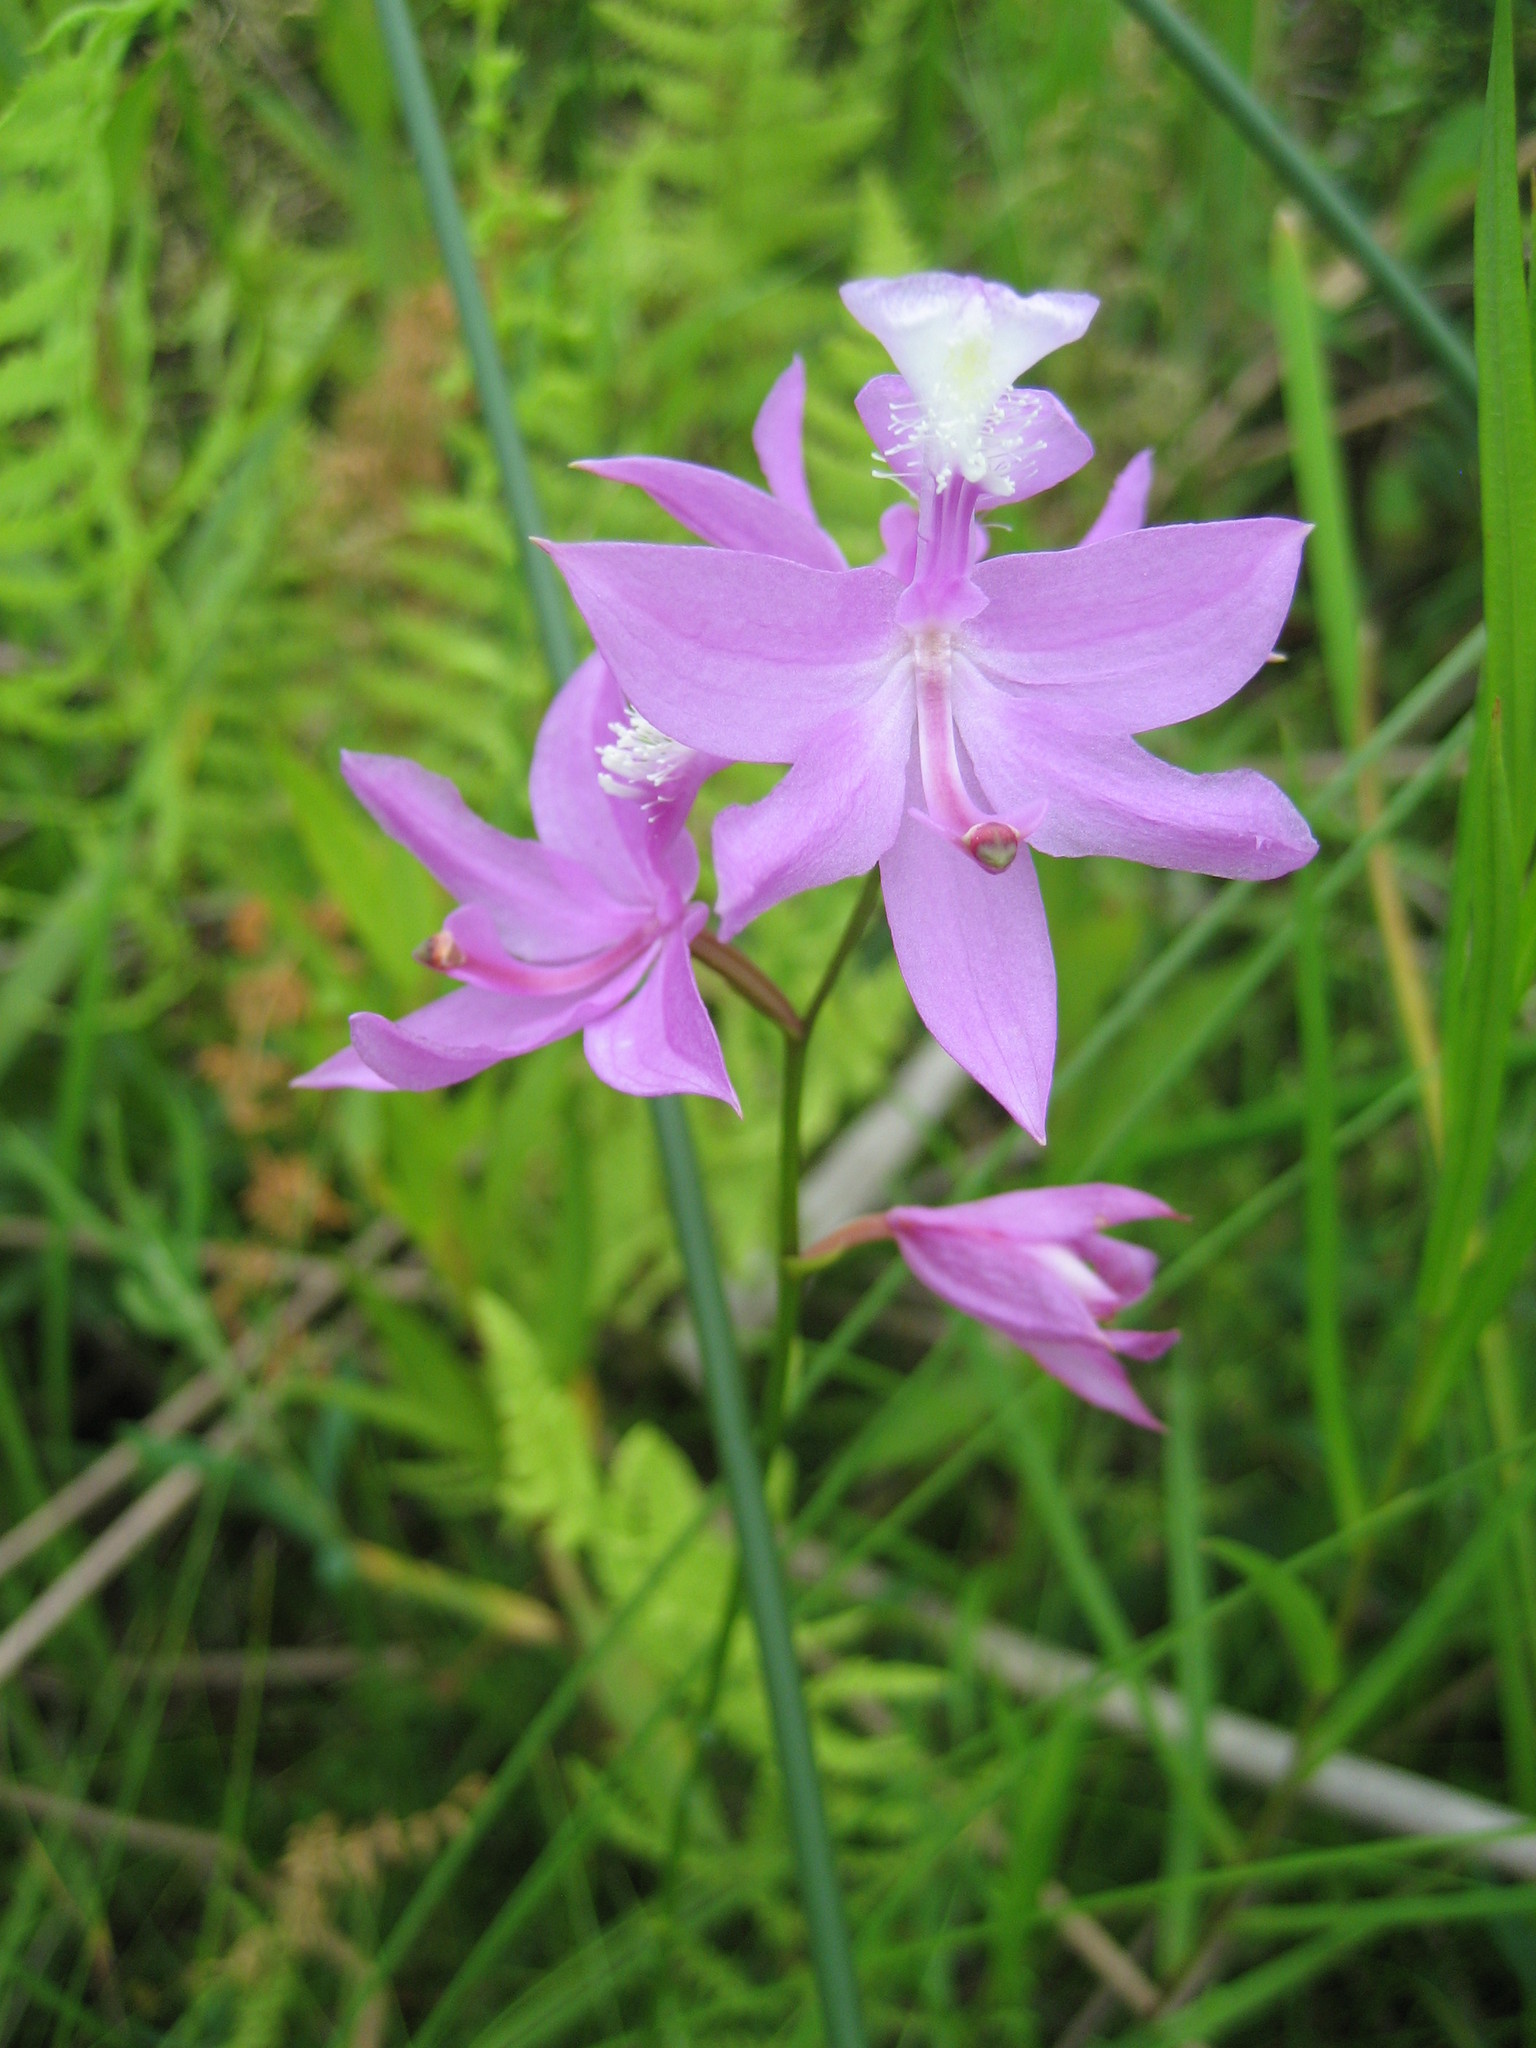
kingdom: Plantae
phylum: Tracheophyta
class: Liliopsida
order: Asparagales
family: Orchidaceae
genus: Calopogon
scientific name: Calopogon tuberosus
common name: Grass-pink
